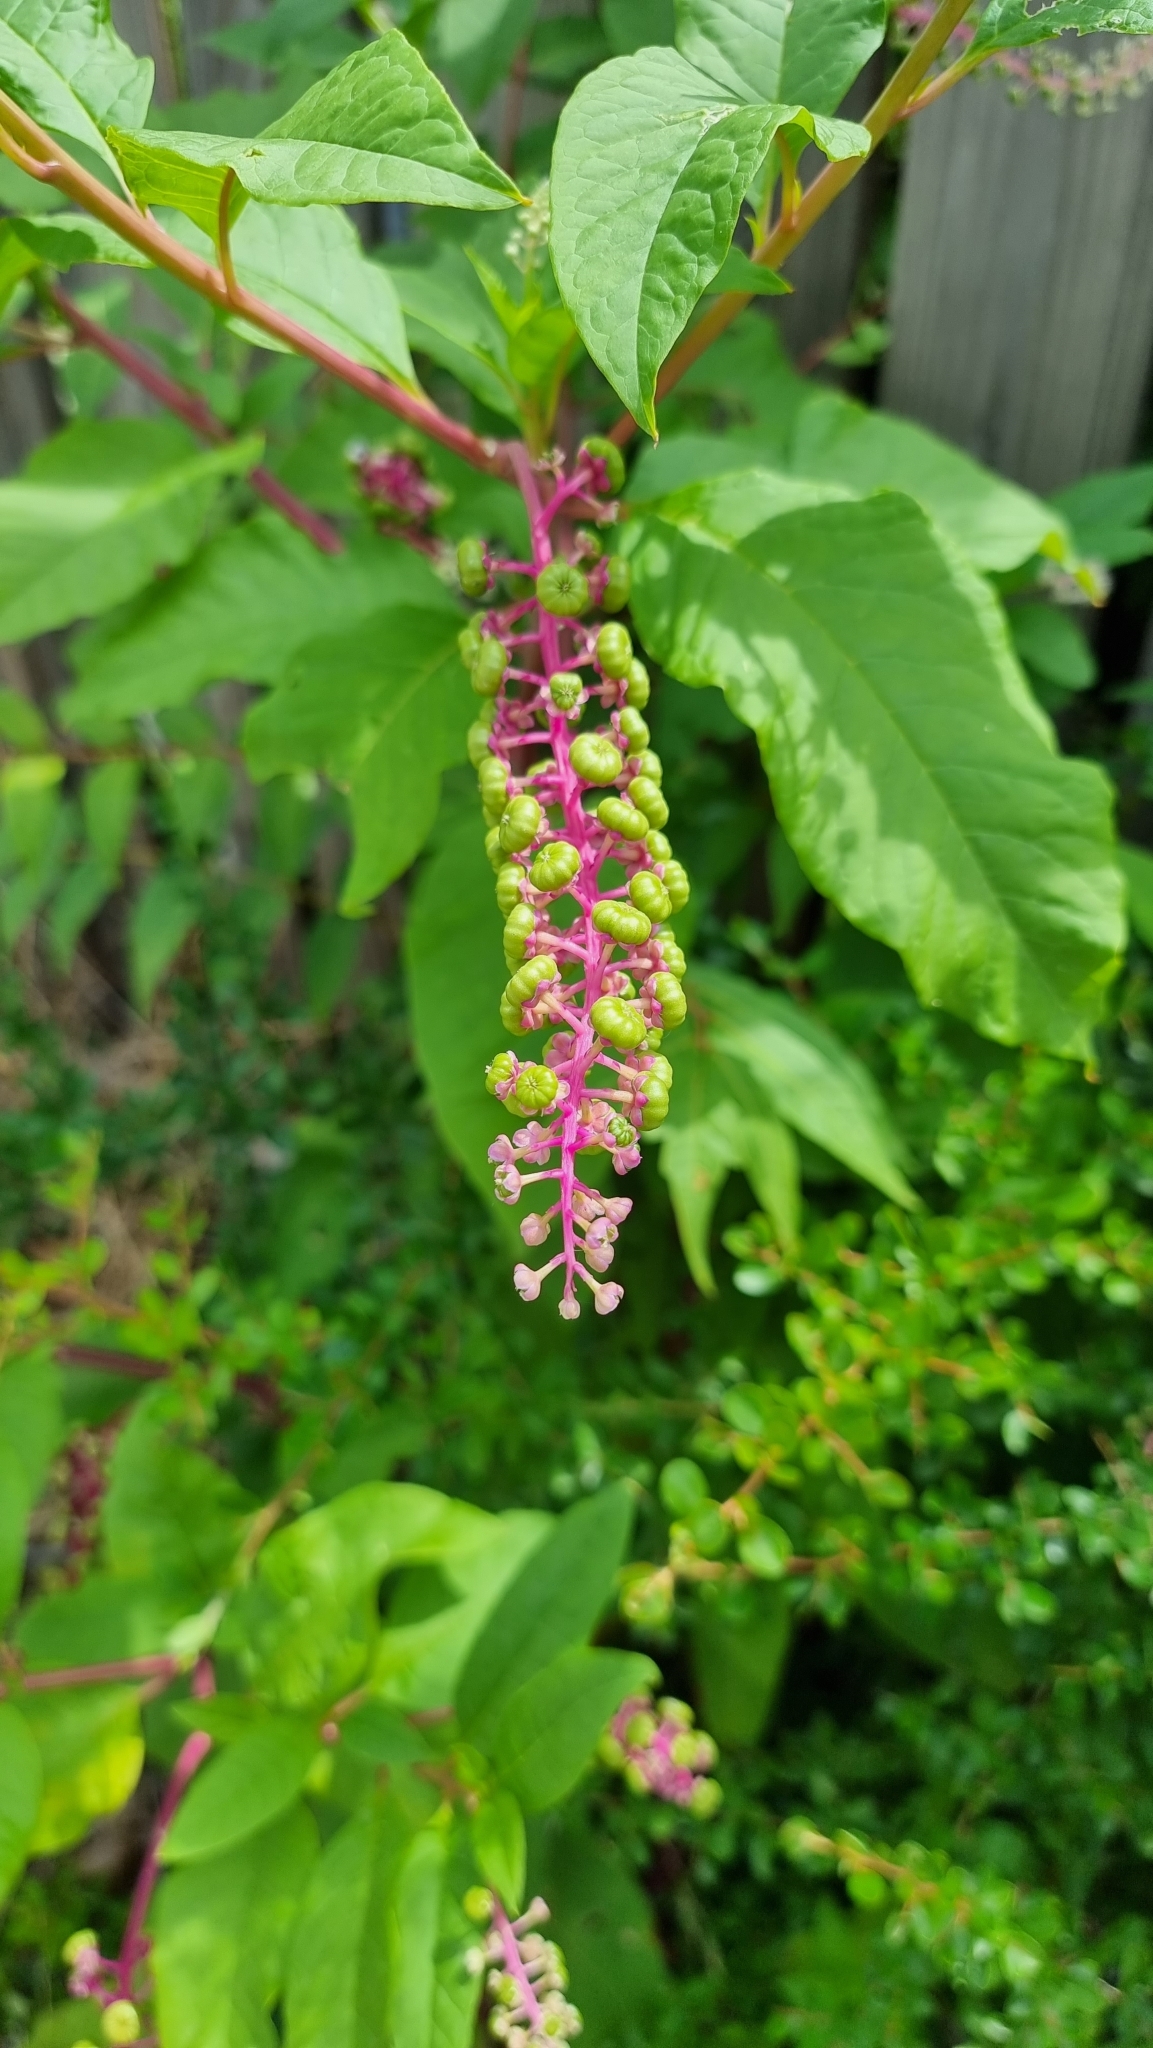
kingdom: Plantae
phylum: Tracheophyta
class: Magnoliopsida
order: Caryophyllales
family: Phytolaccaceae
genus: Phytolacca
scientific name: Phytolacca americana
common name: American pokeweed
